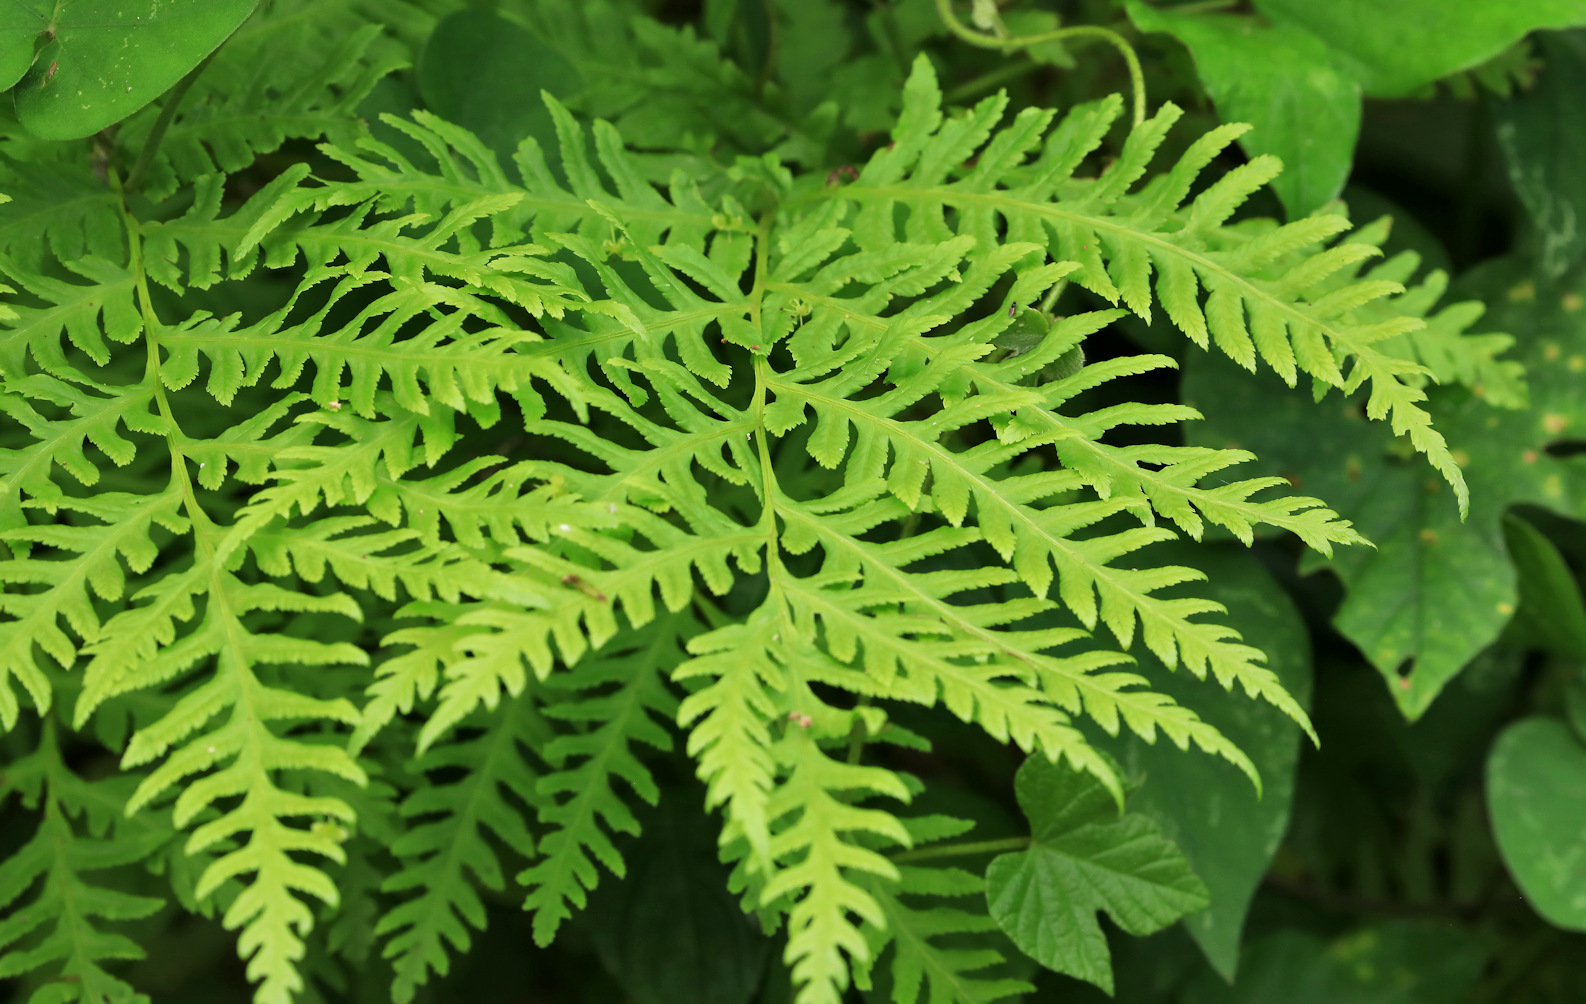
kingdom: Plantae
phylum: Tracheophyta
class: Polypodiopsida
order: Polypodiales
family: Pteridaceae
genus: Pteris
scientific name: Pteris tremula
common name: Australian brake
